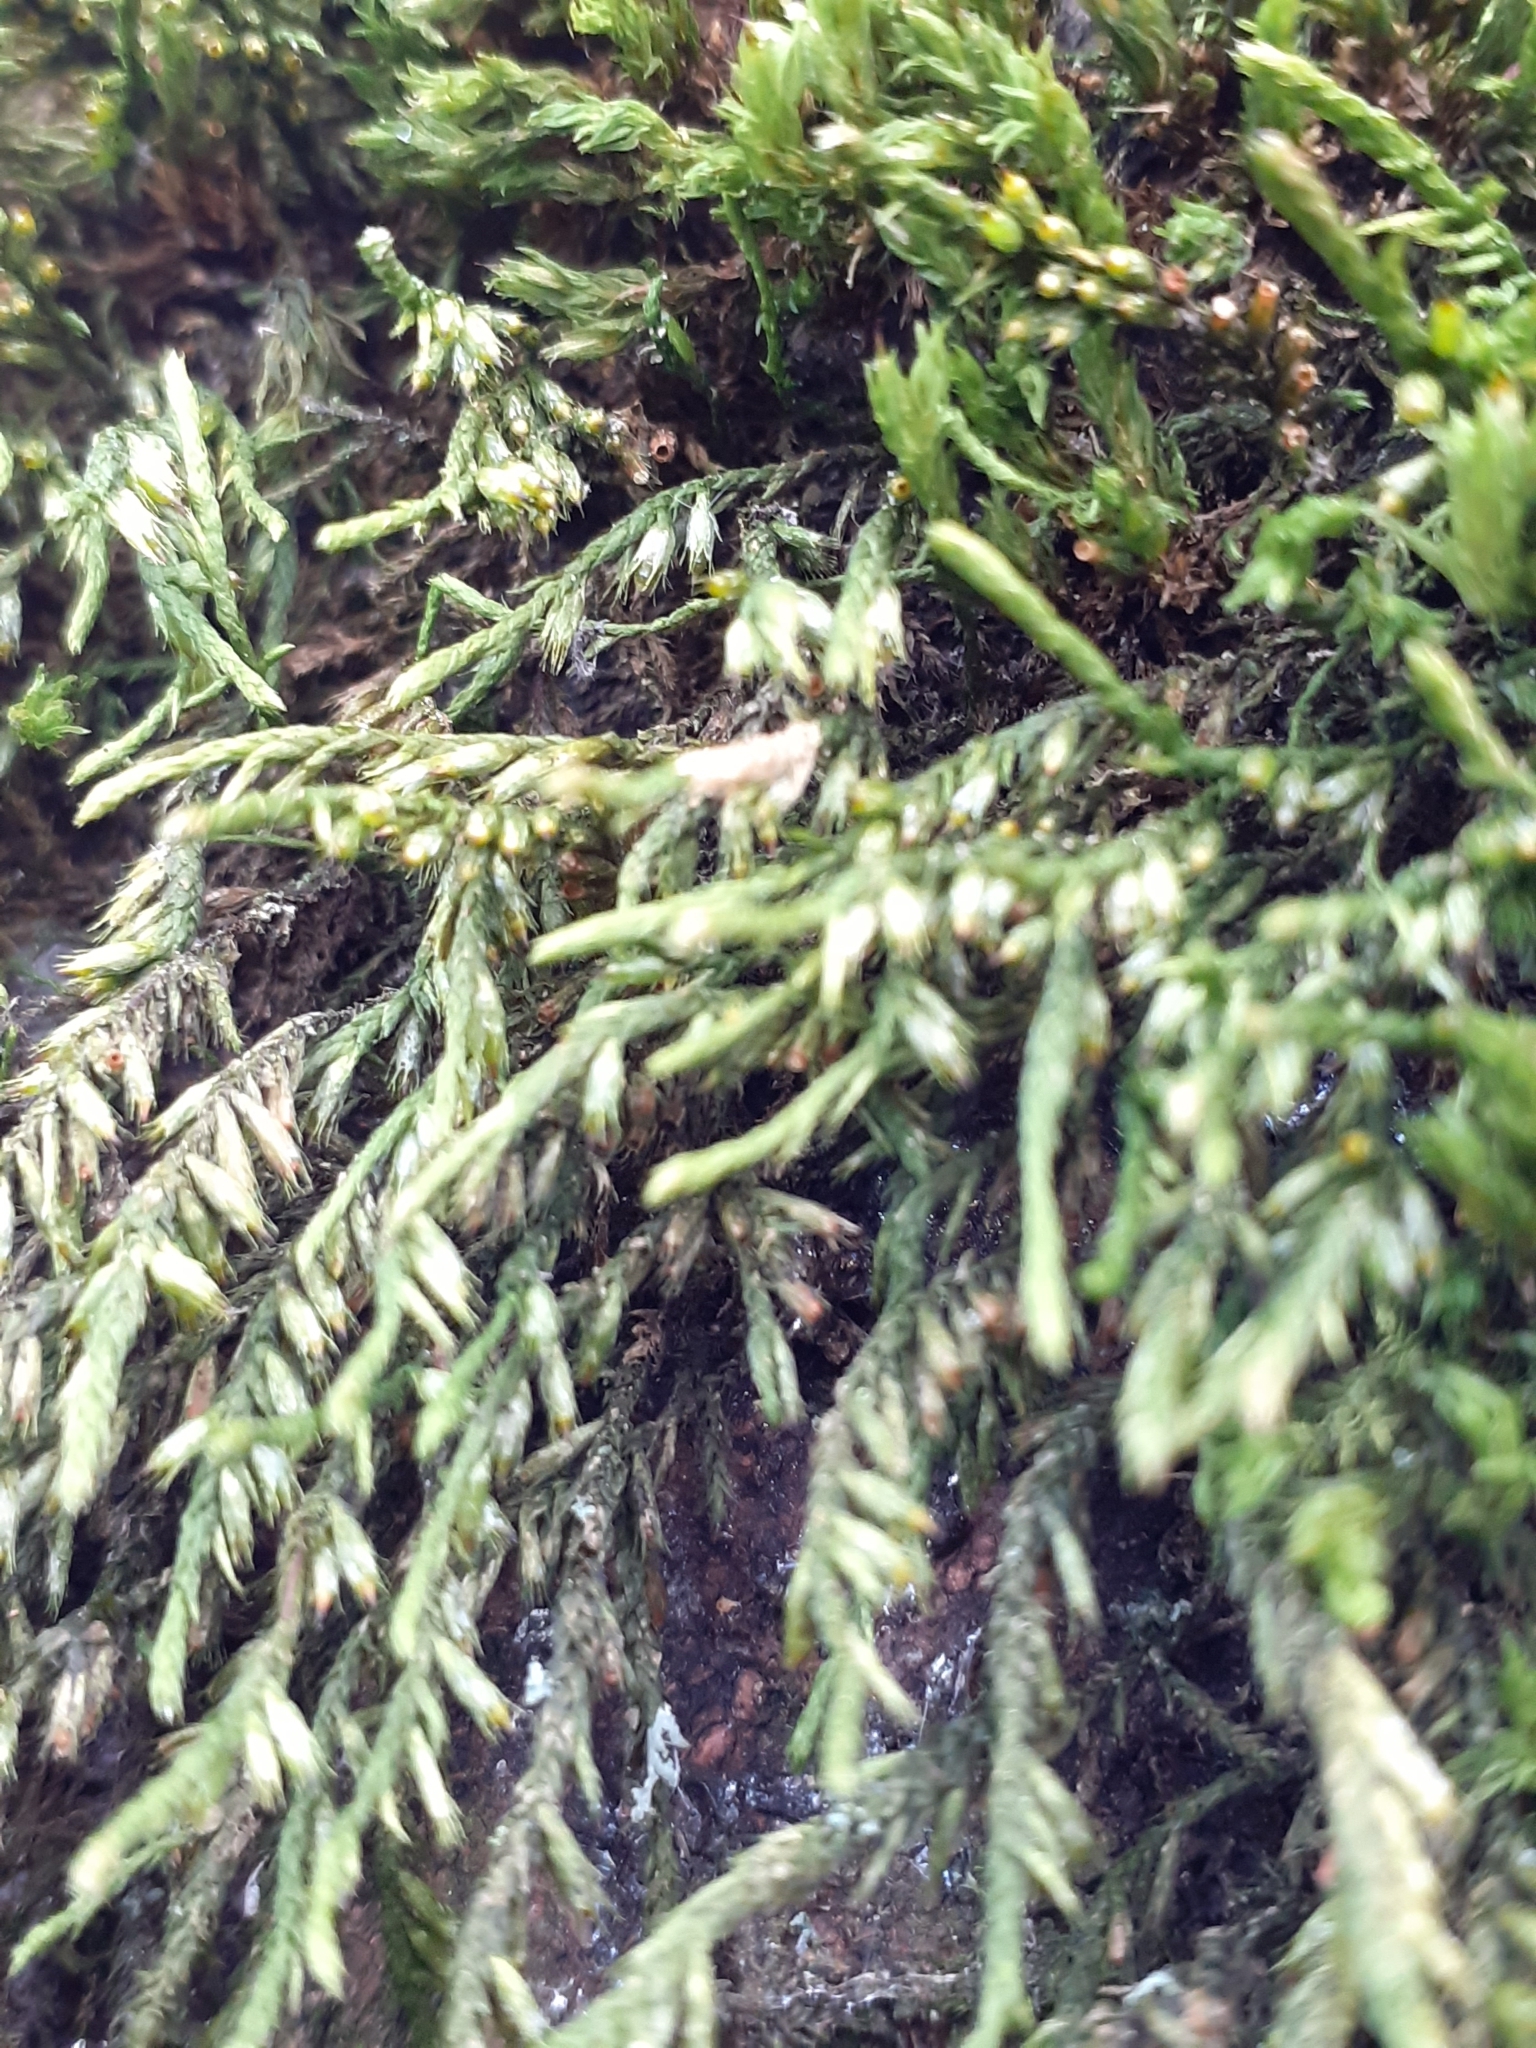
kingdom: Plantae
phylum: Bryophyta
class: Bryopsida
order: Hypnales
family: Cryphaeaceae
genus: Cryphaea
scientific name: Cryphaea heteromalla
